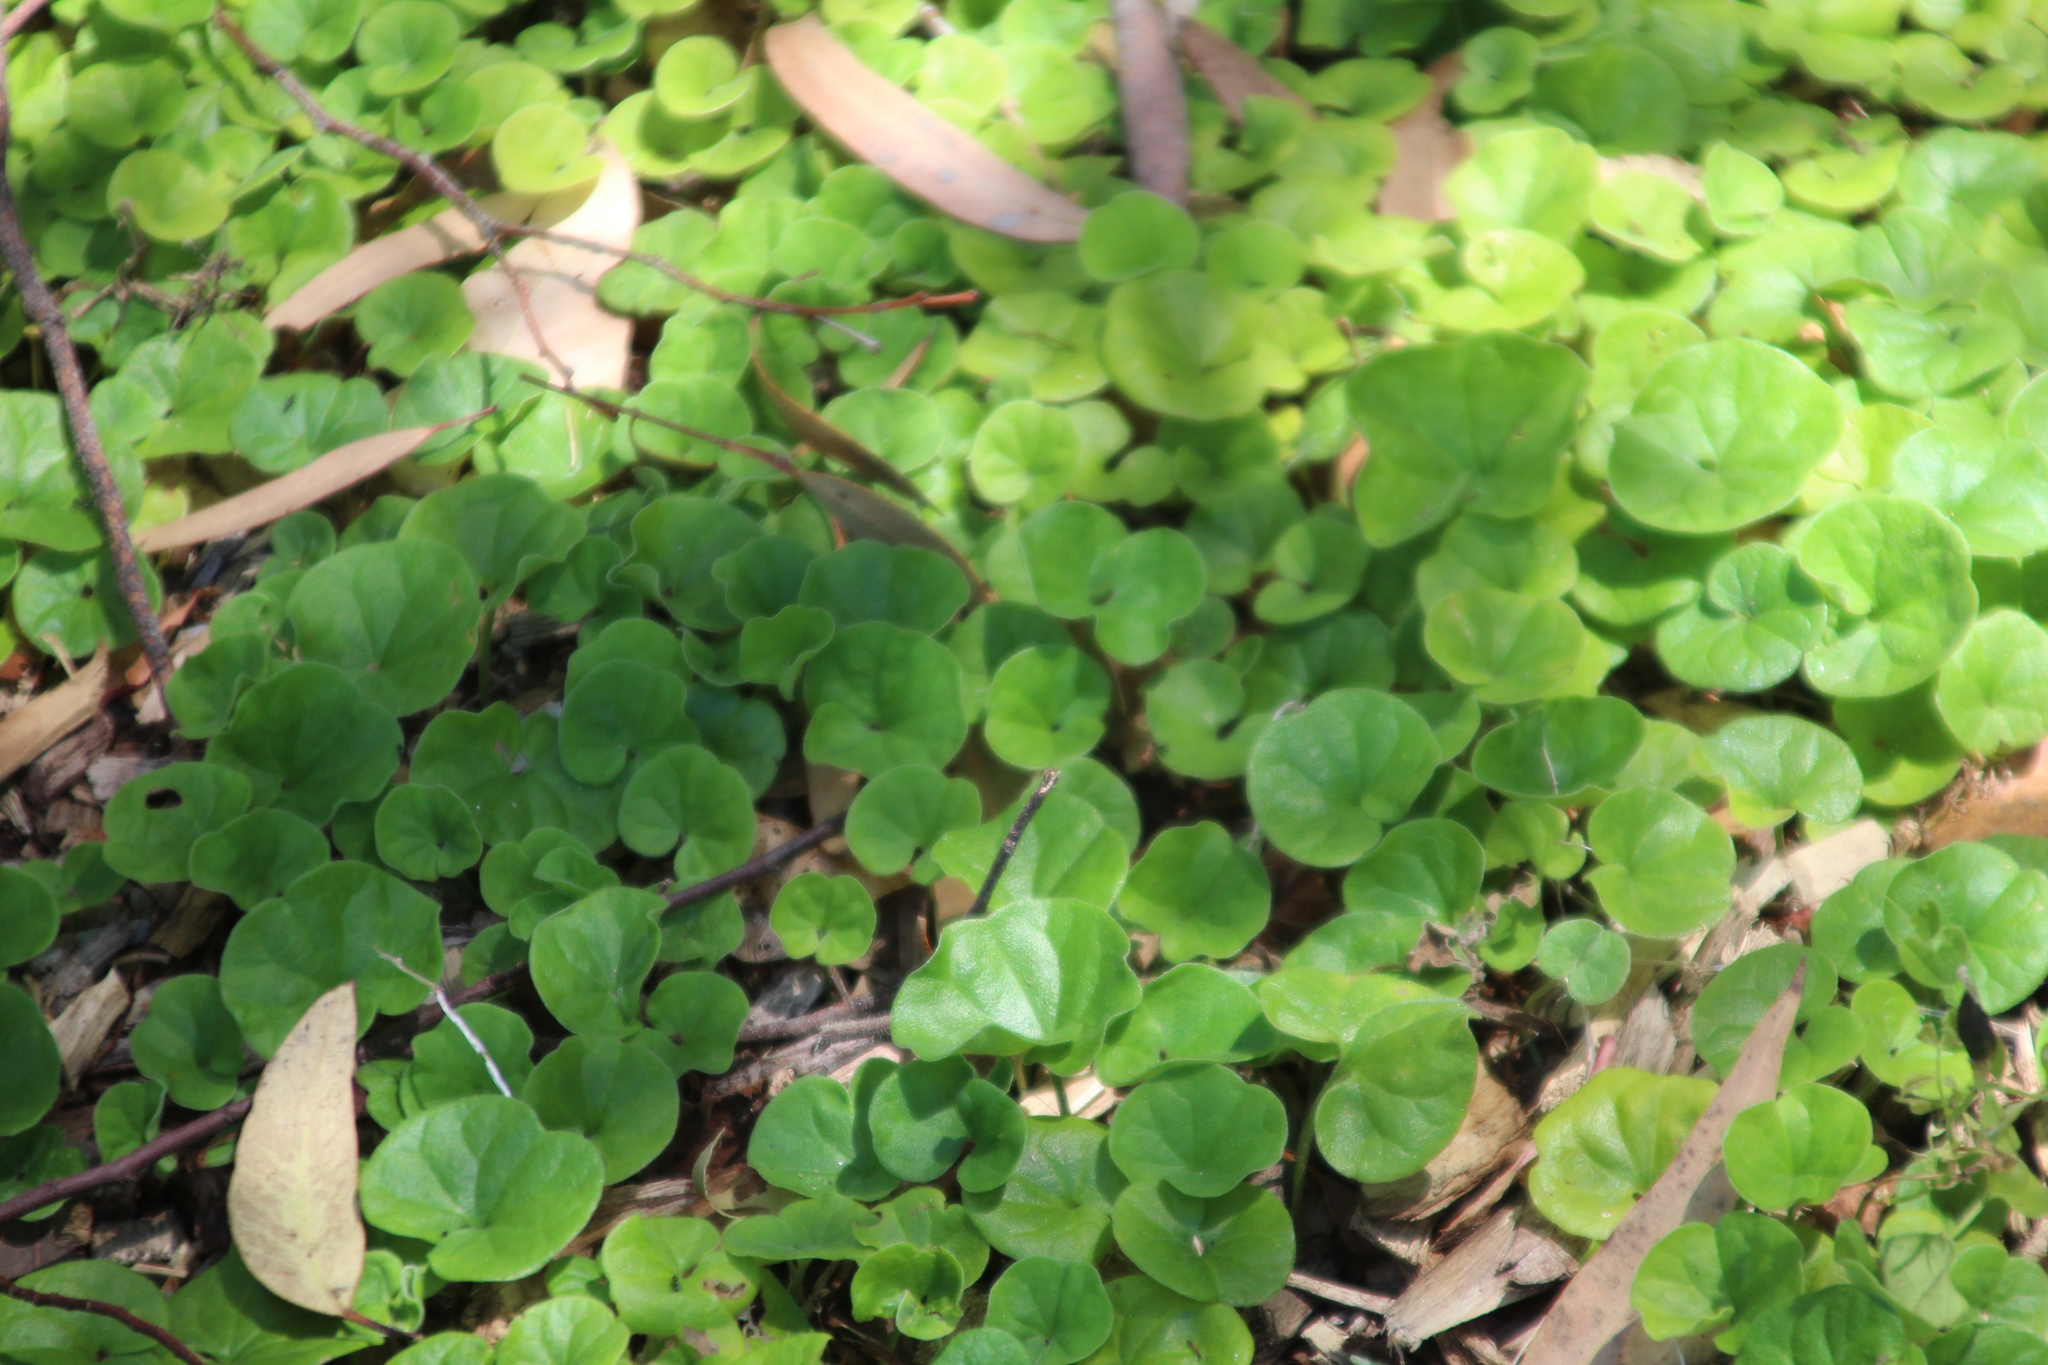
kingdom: Plantae
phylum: Tracheophyta
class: Magnoliopsida
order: Solanales
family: Convolvulaceae
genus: Dichondra
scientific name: Dichondra repens
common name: Kidneyweed
